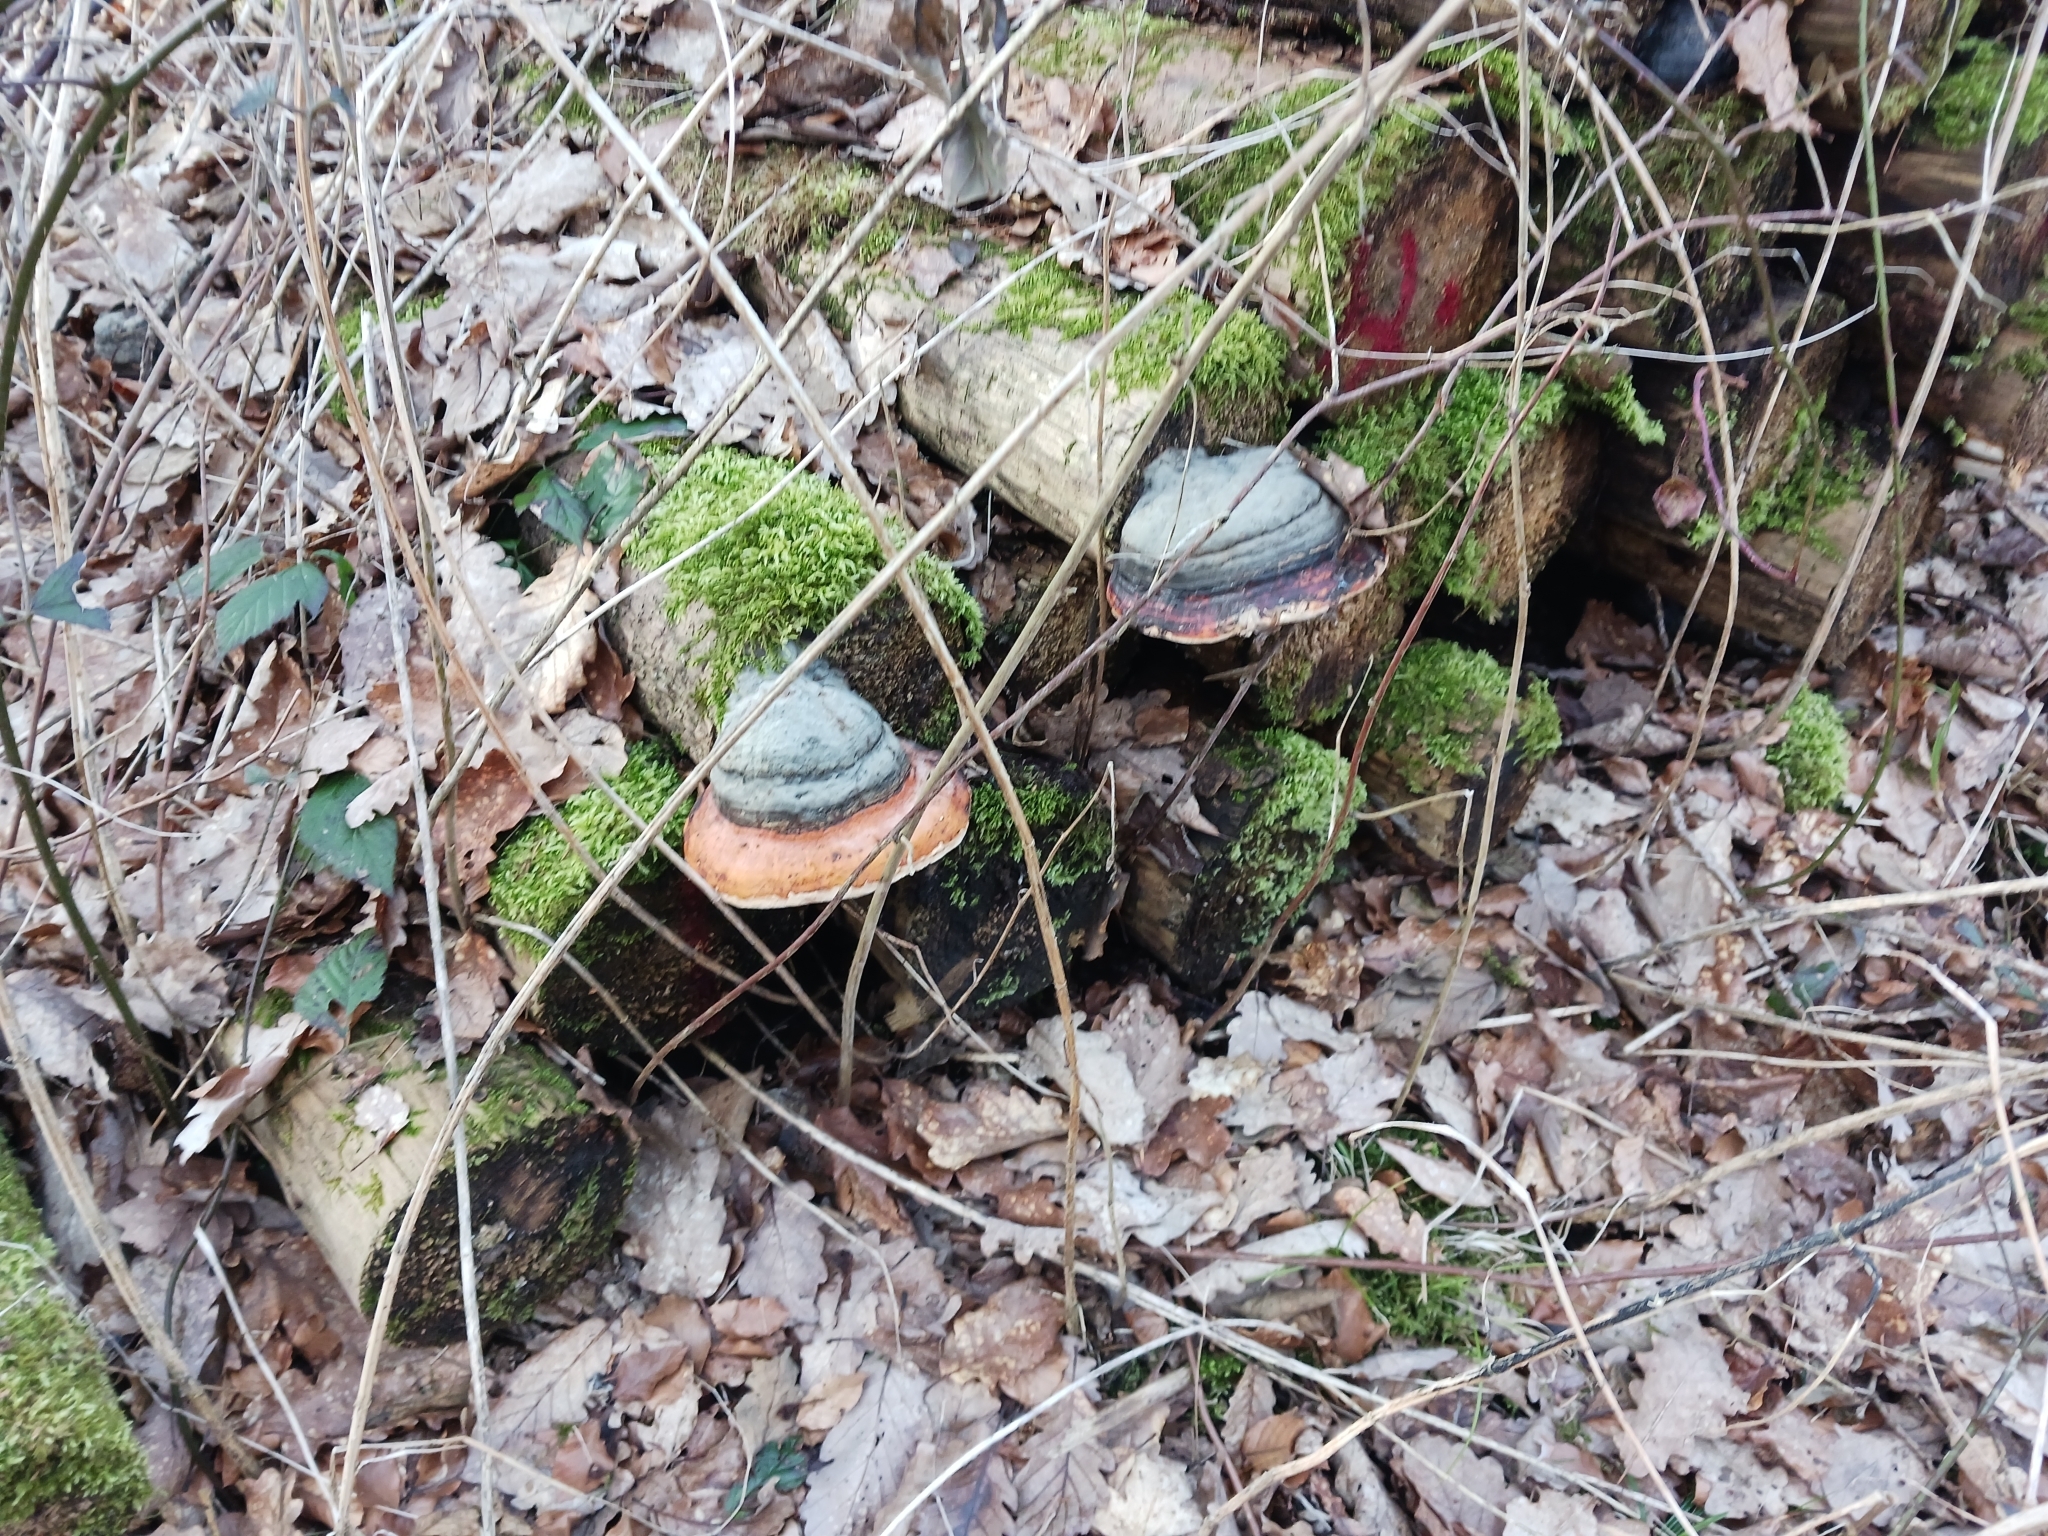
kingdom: Fungi
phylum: Basidiomycota
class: Agaricomycetes
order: Polyporales
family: Fomitopsidaceae
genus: Fomitopsis
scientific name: Fomitopsis pinicola
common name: Red-belted bracket
